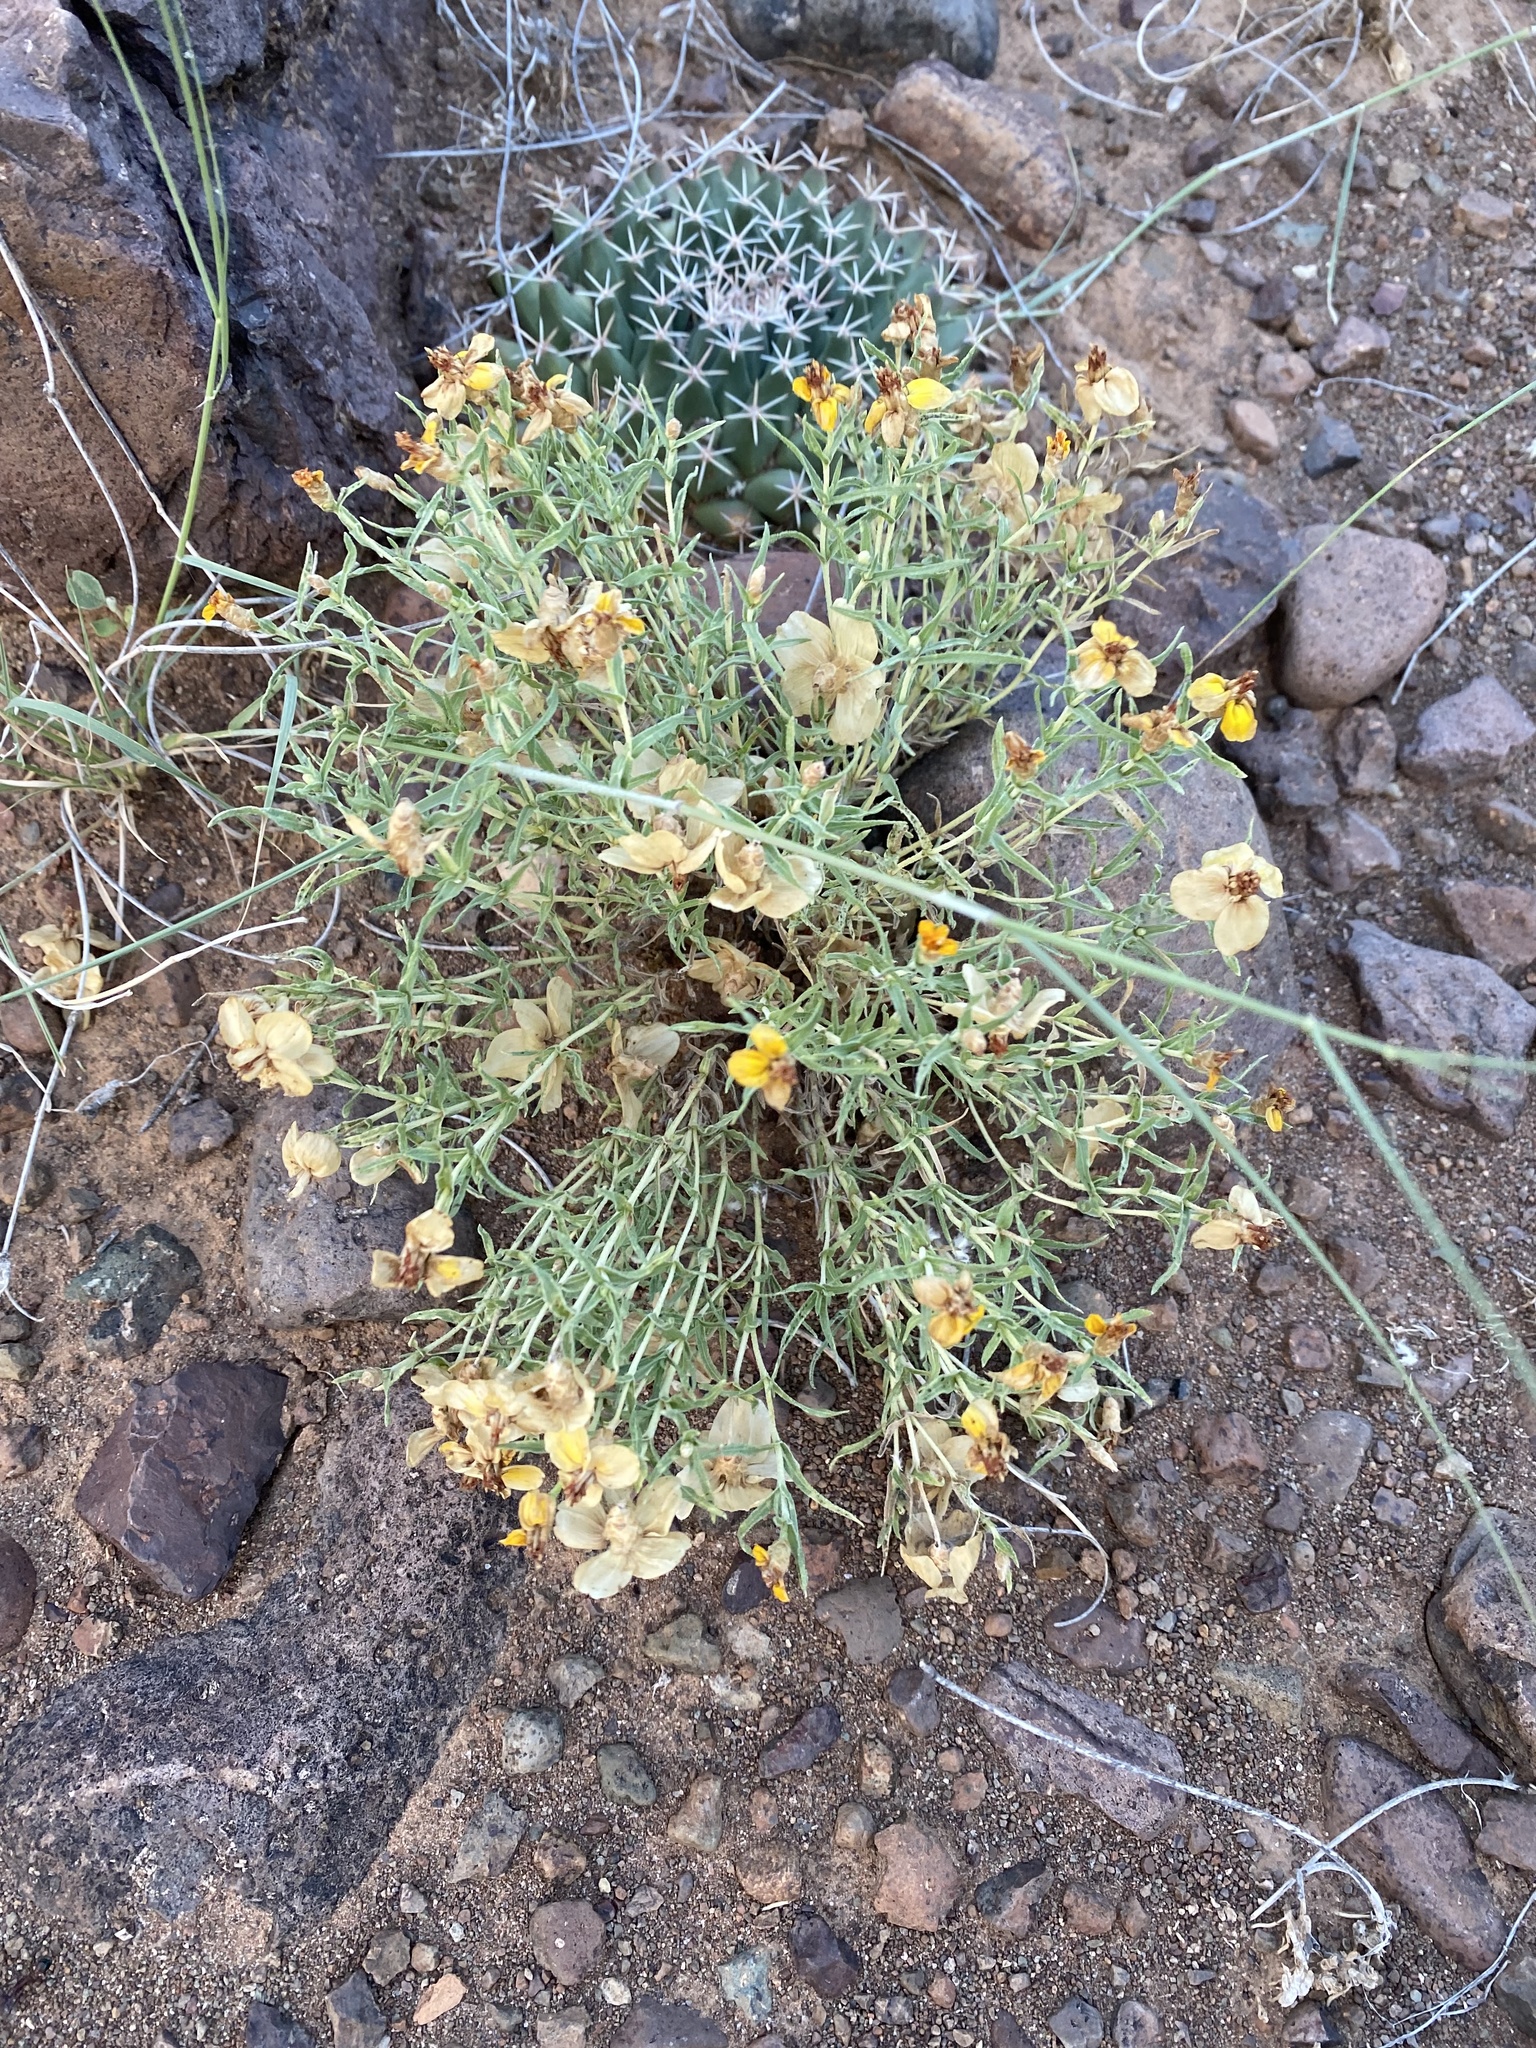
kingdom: Plantae
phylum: Tracheophyta
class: Magnoliopsida
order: Asterales
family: Asteraceae
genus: Zinnia
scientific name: Zinnia grandiflora
